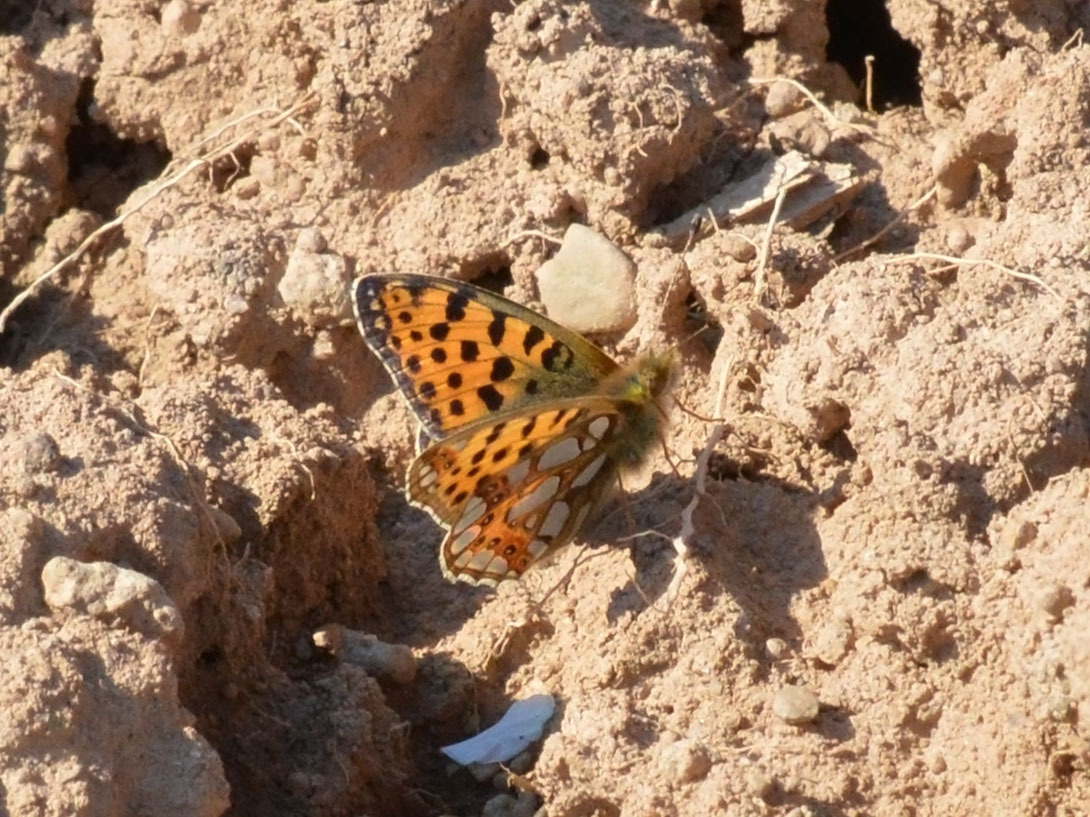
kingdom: Animalia
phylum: Arthropoda
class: Insecta
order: Lepidoptera
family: Nymphalidae
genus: Issoria
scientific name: Issoria lathonia
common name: Queen of spain fritillary
